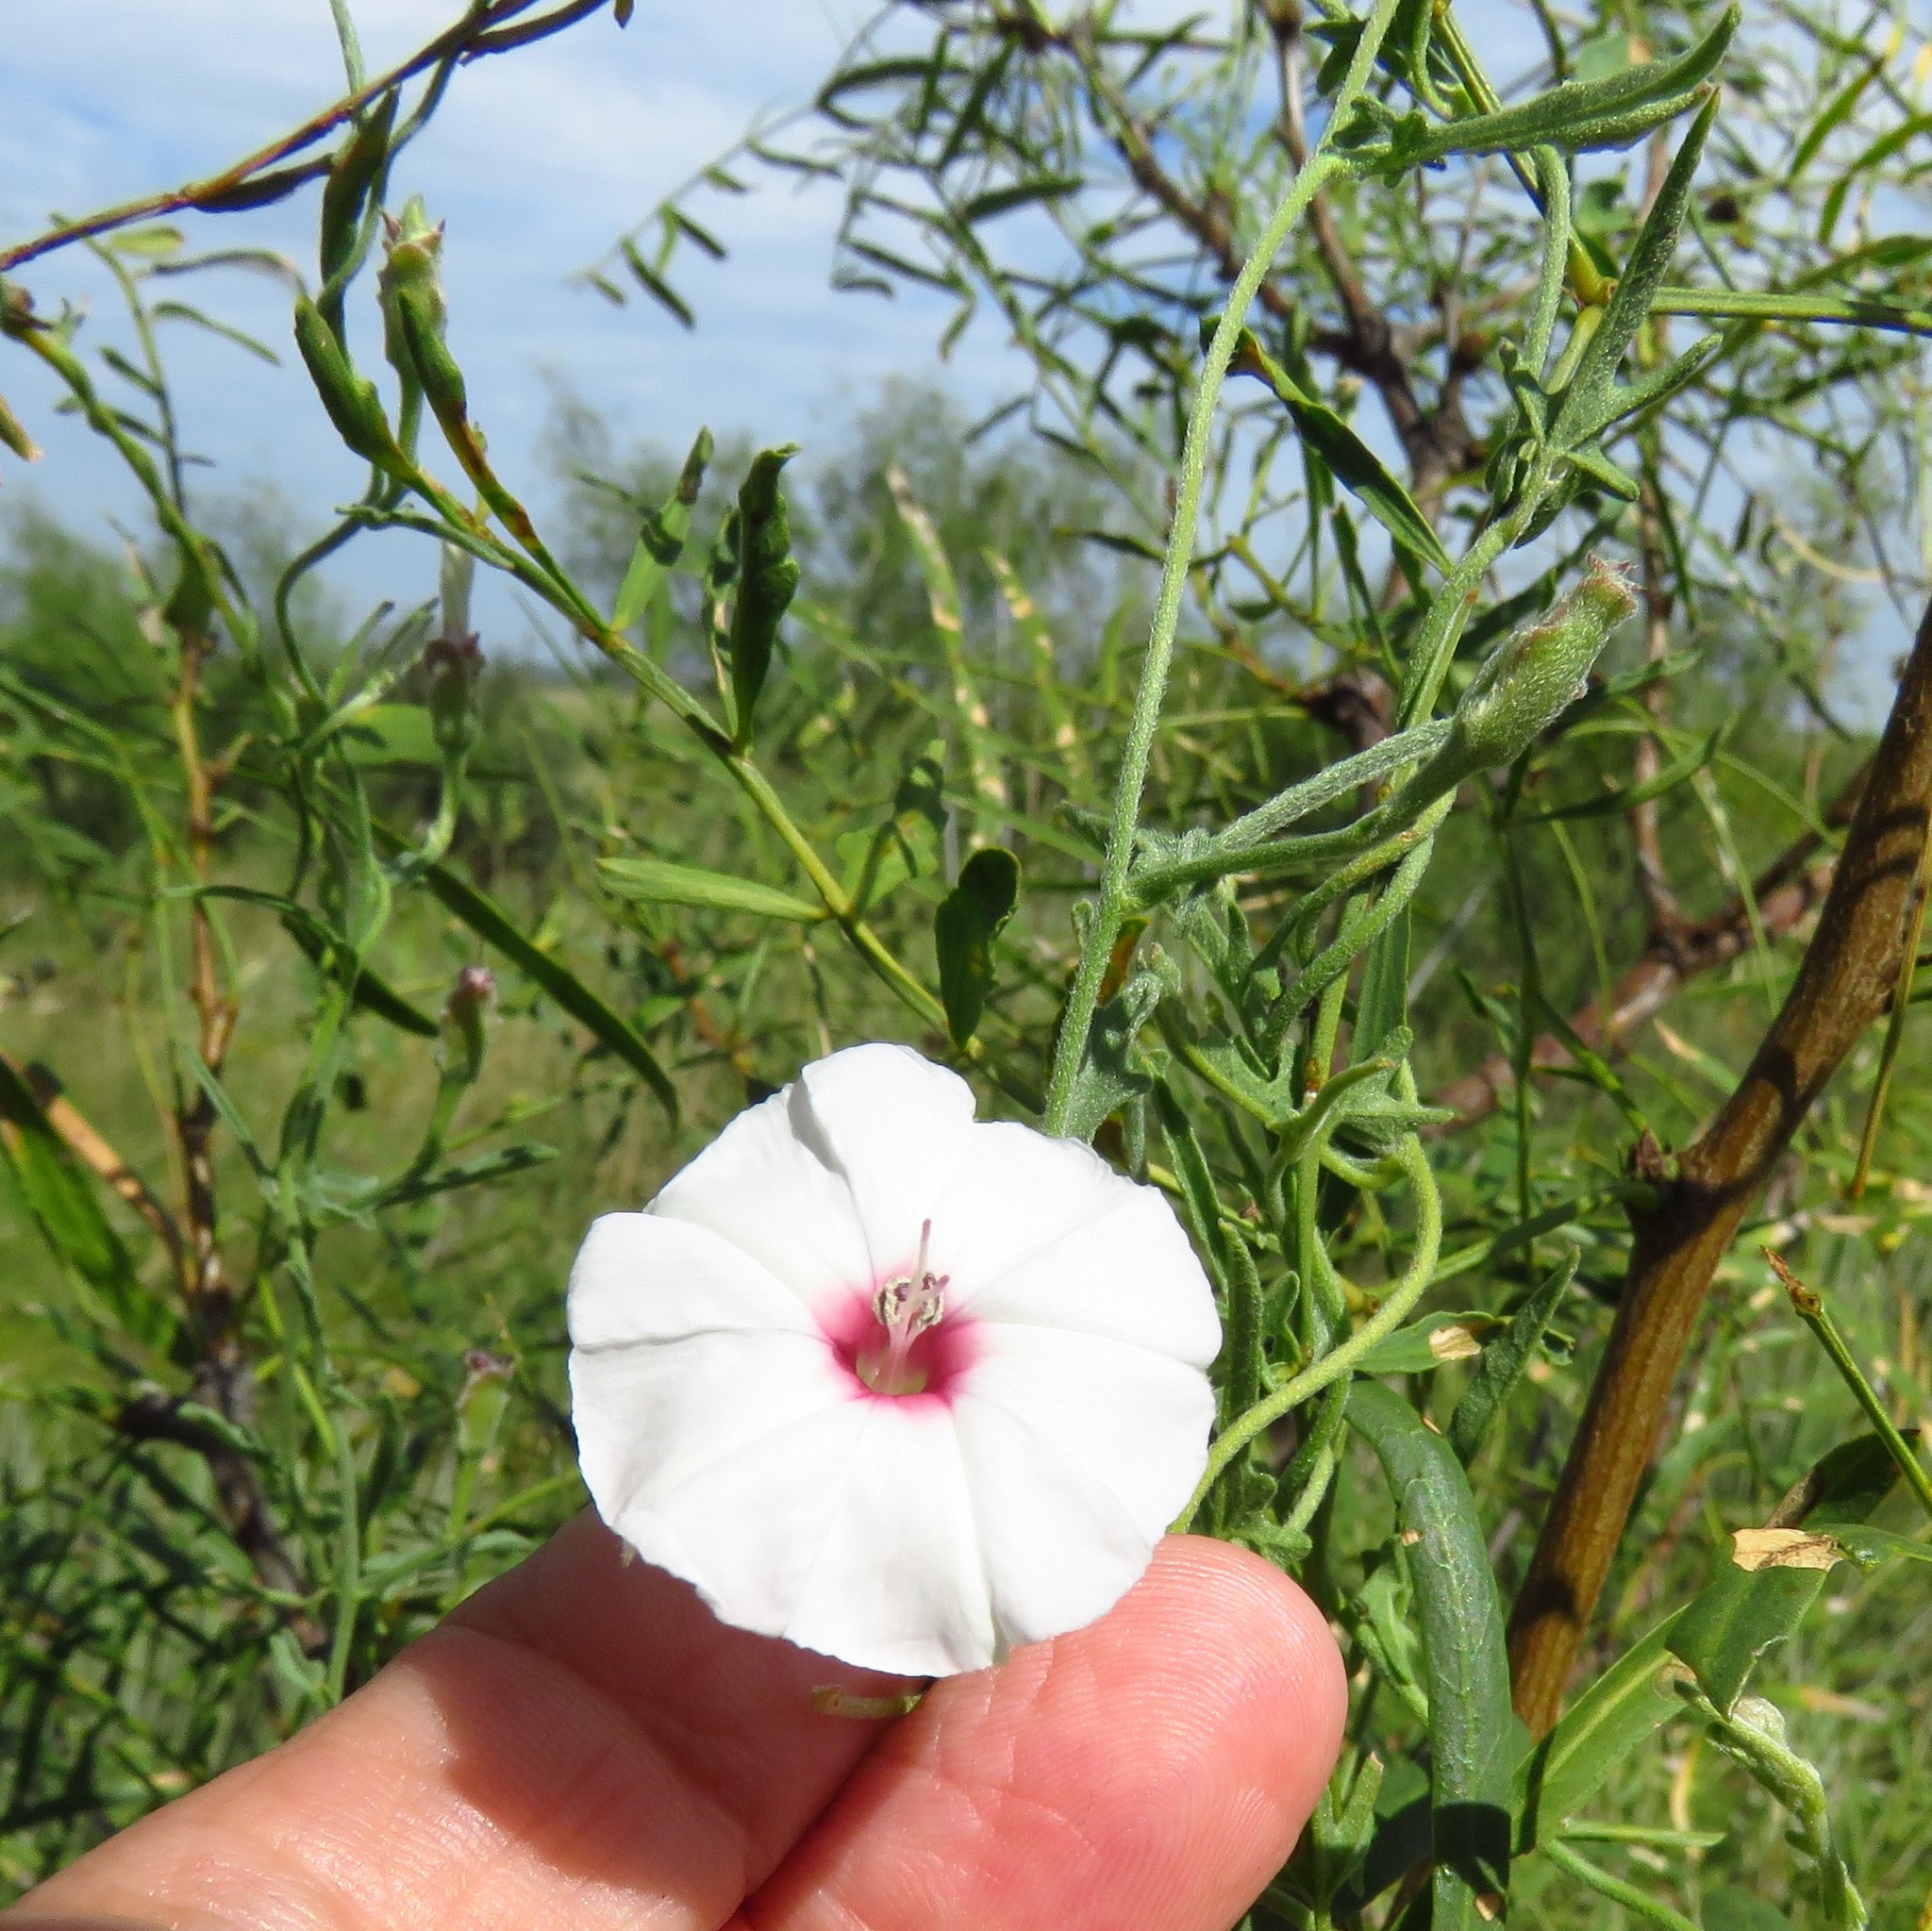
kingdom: Plantae
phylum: Tracheophyta
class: Magnoliopsida
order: Solanales
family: Convolvulaceae
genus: Convolvulus
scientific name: Convolvulus equitans
